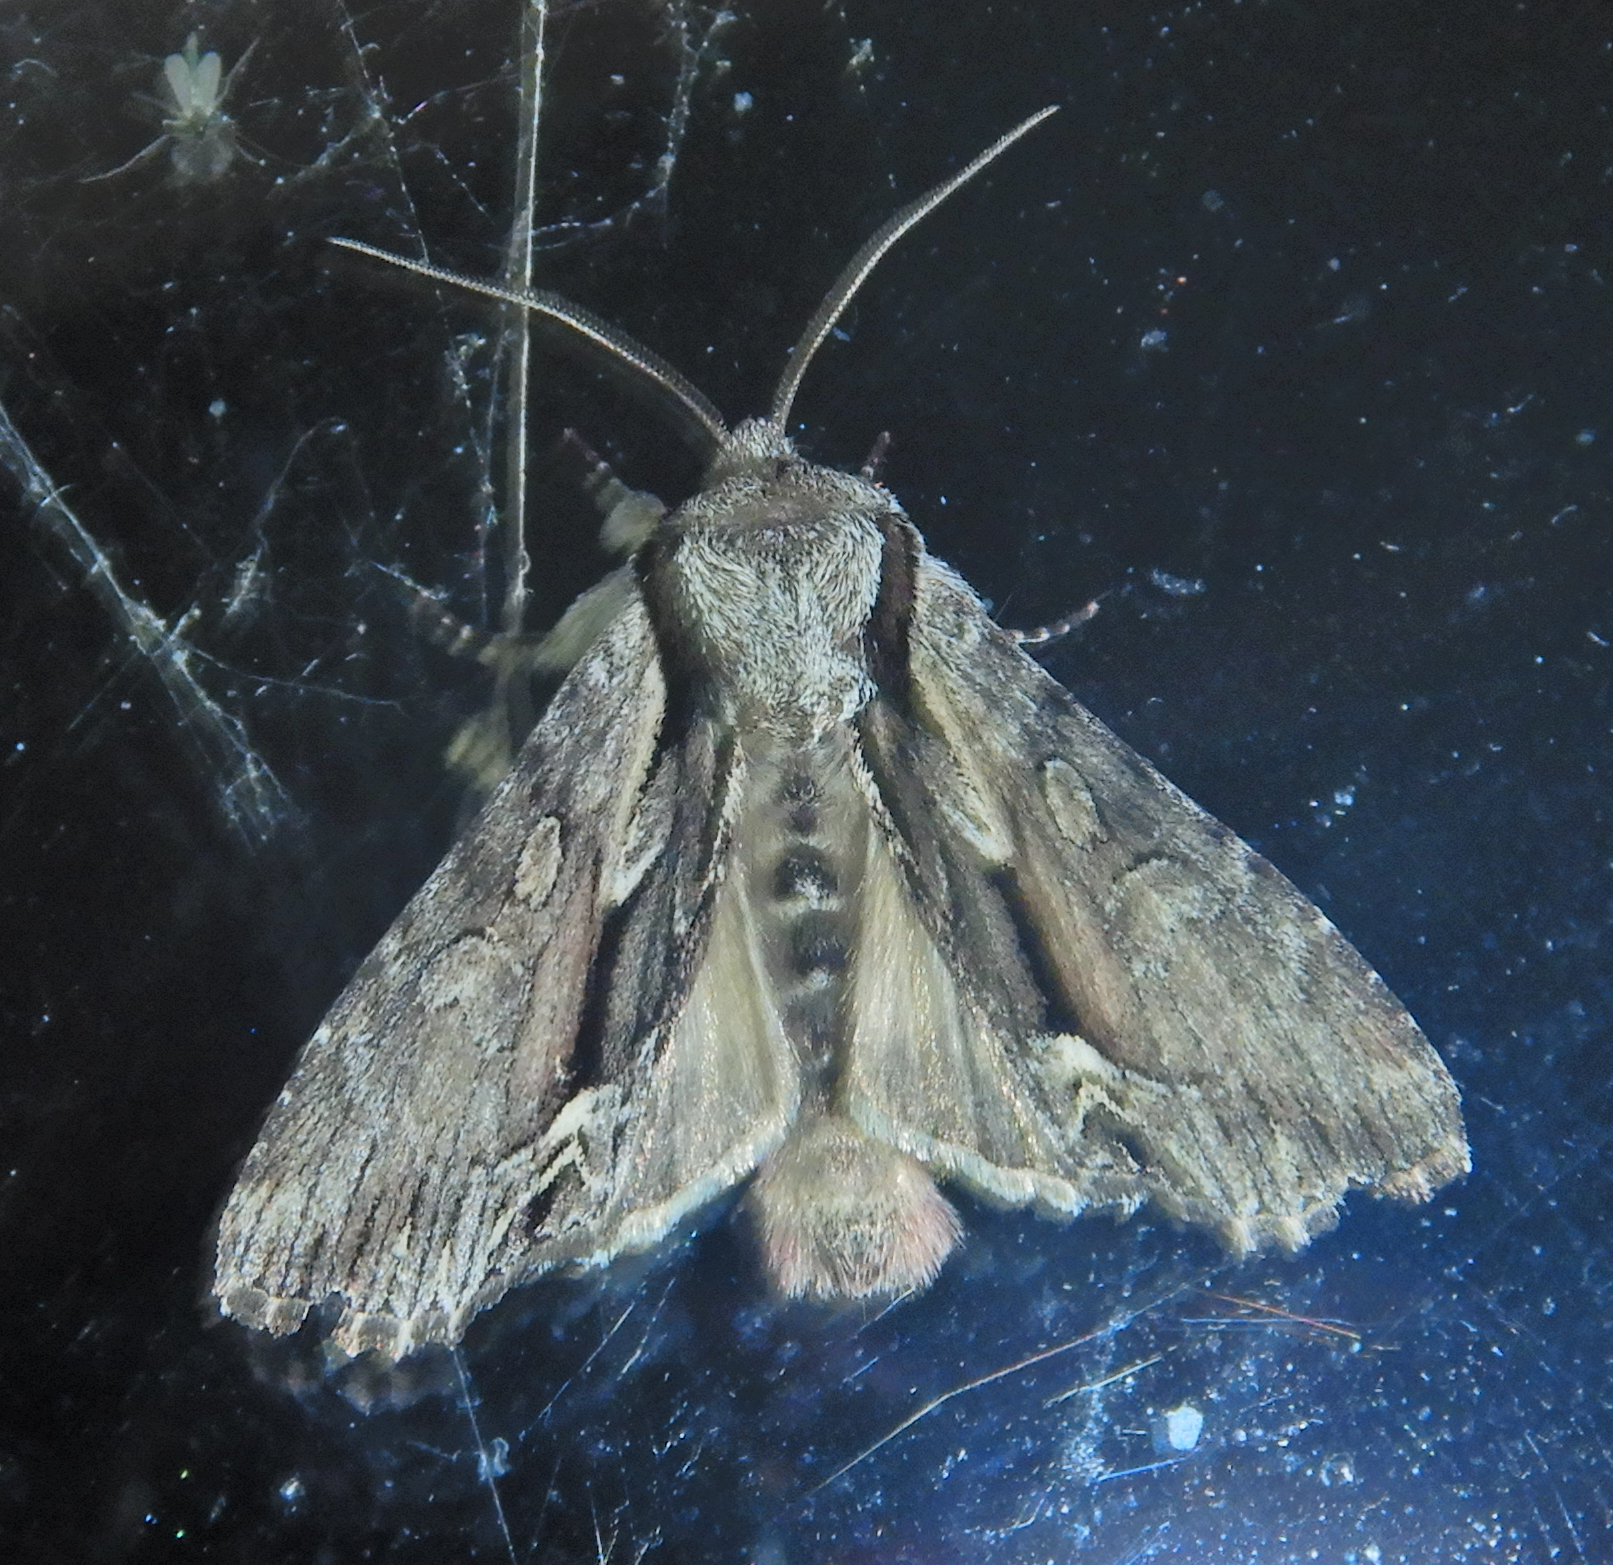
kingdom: Animalia
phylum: Arthropoda
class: Insecta
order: Lepidoptera
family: Noctuidae
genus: Hyppa
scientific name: Hyppa xylinoides
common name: Common hyppa moth
